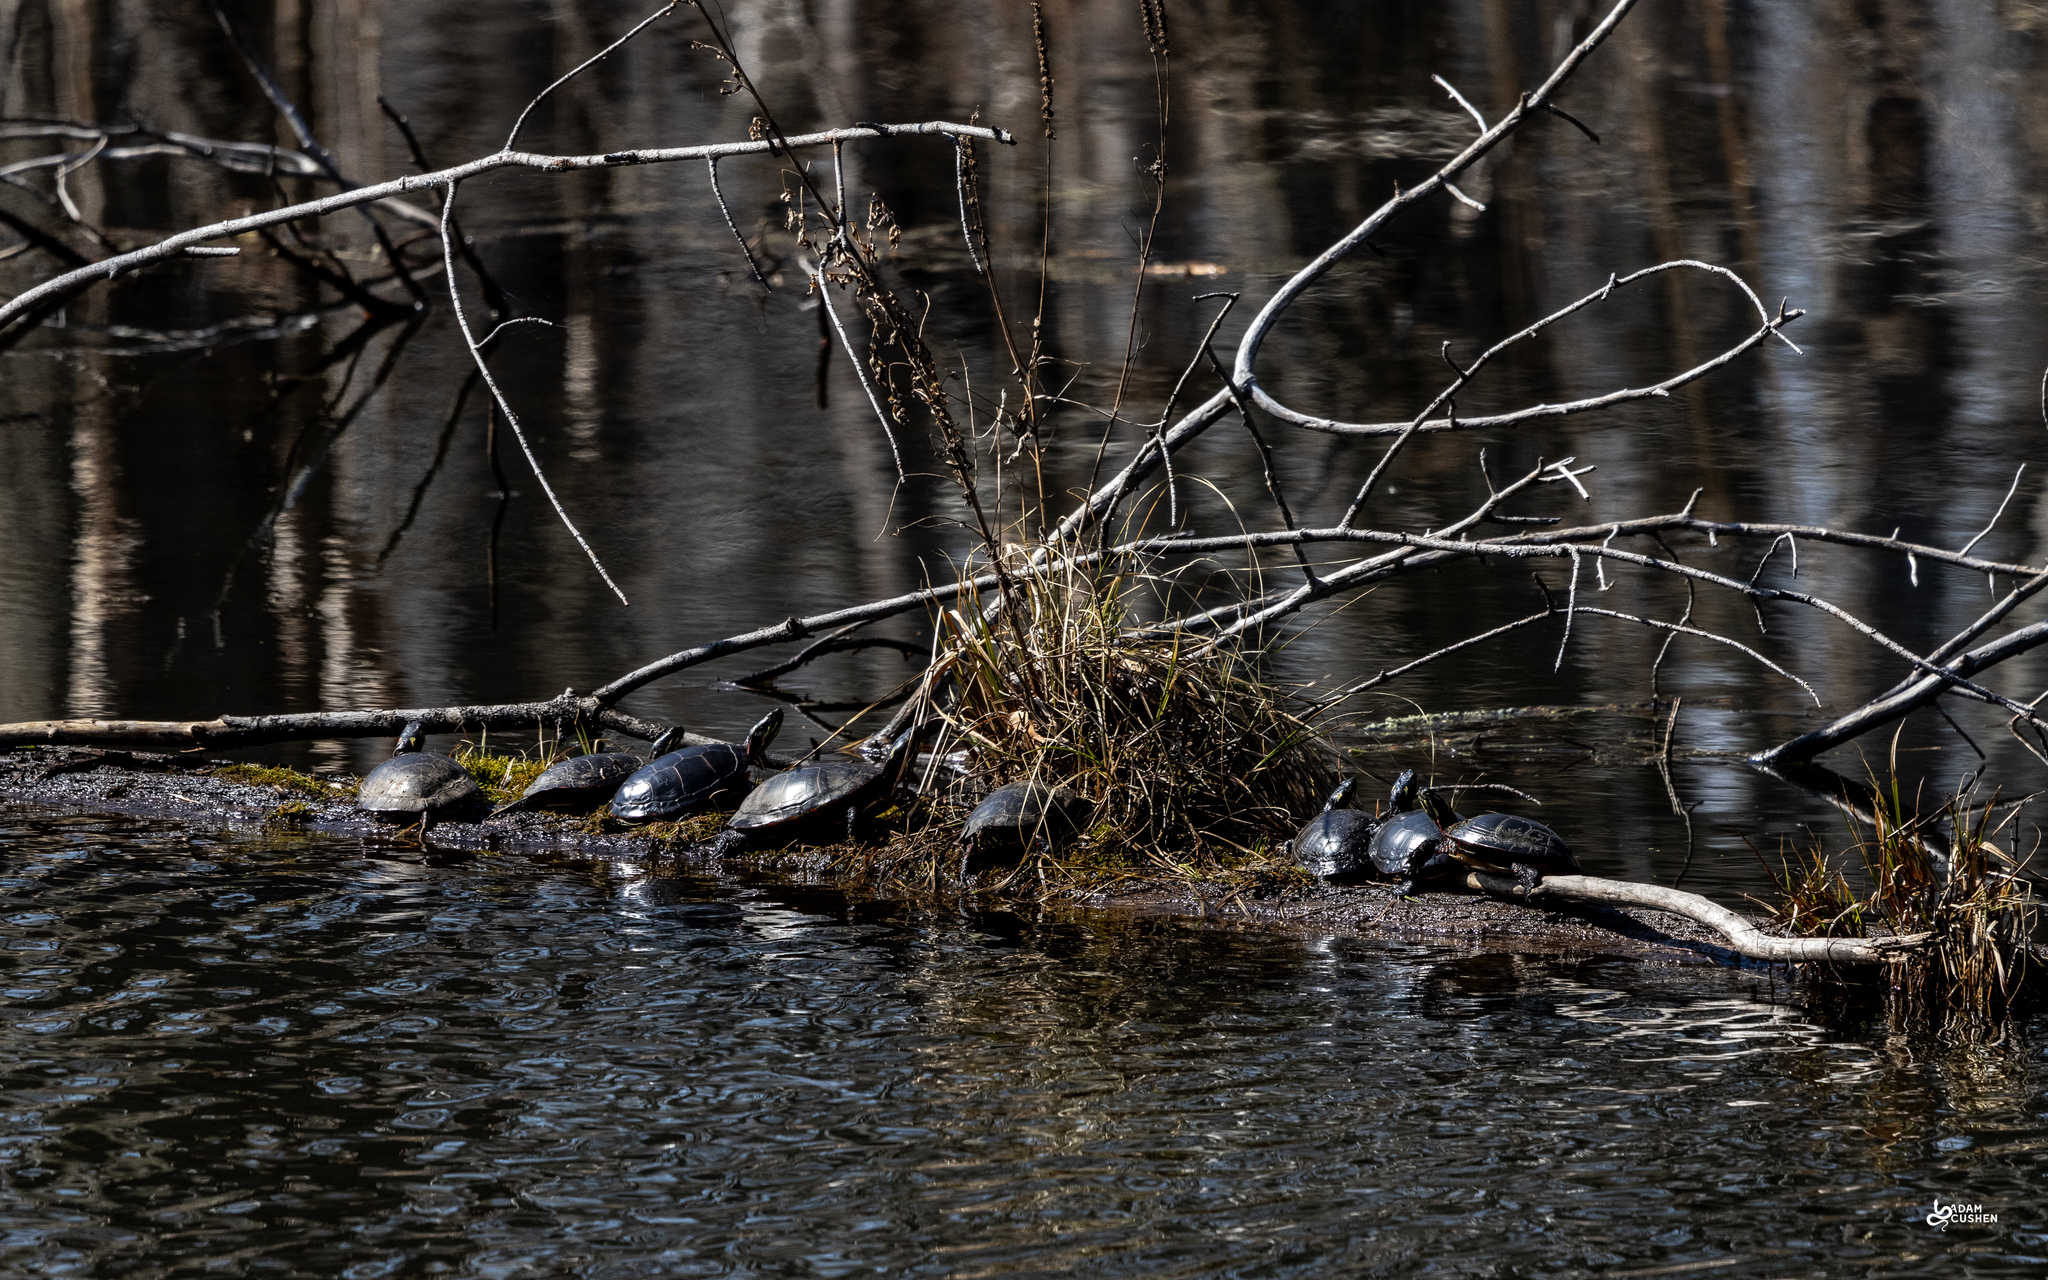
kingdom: Animalia
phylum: Chordata
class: Testudines
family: Emydidae
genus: Chrysemys
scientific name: Chrysemys picta
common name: Painted turtle
